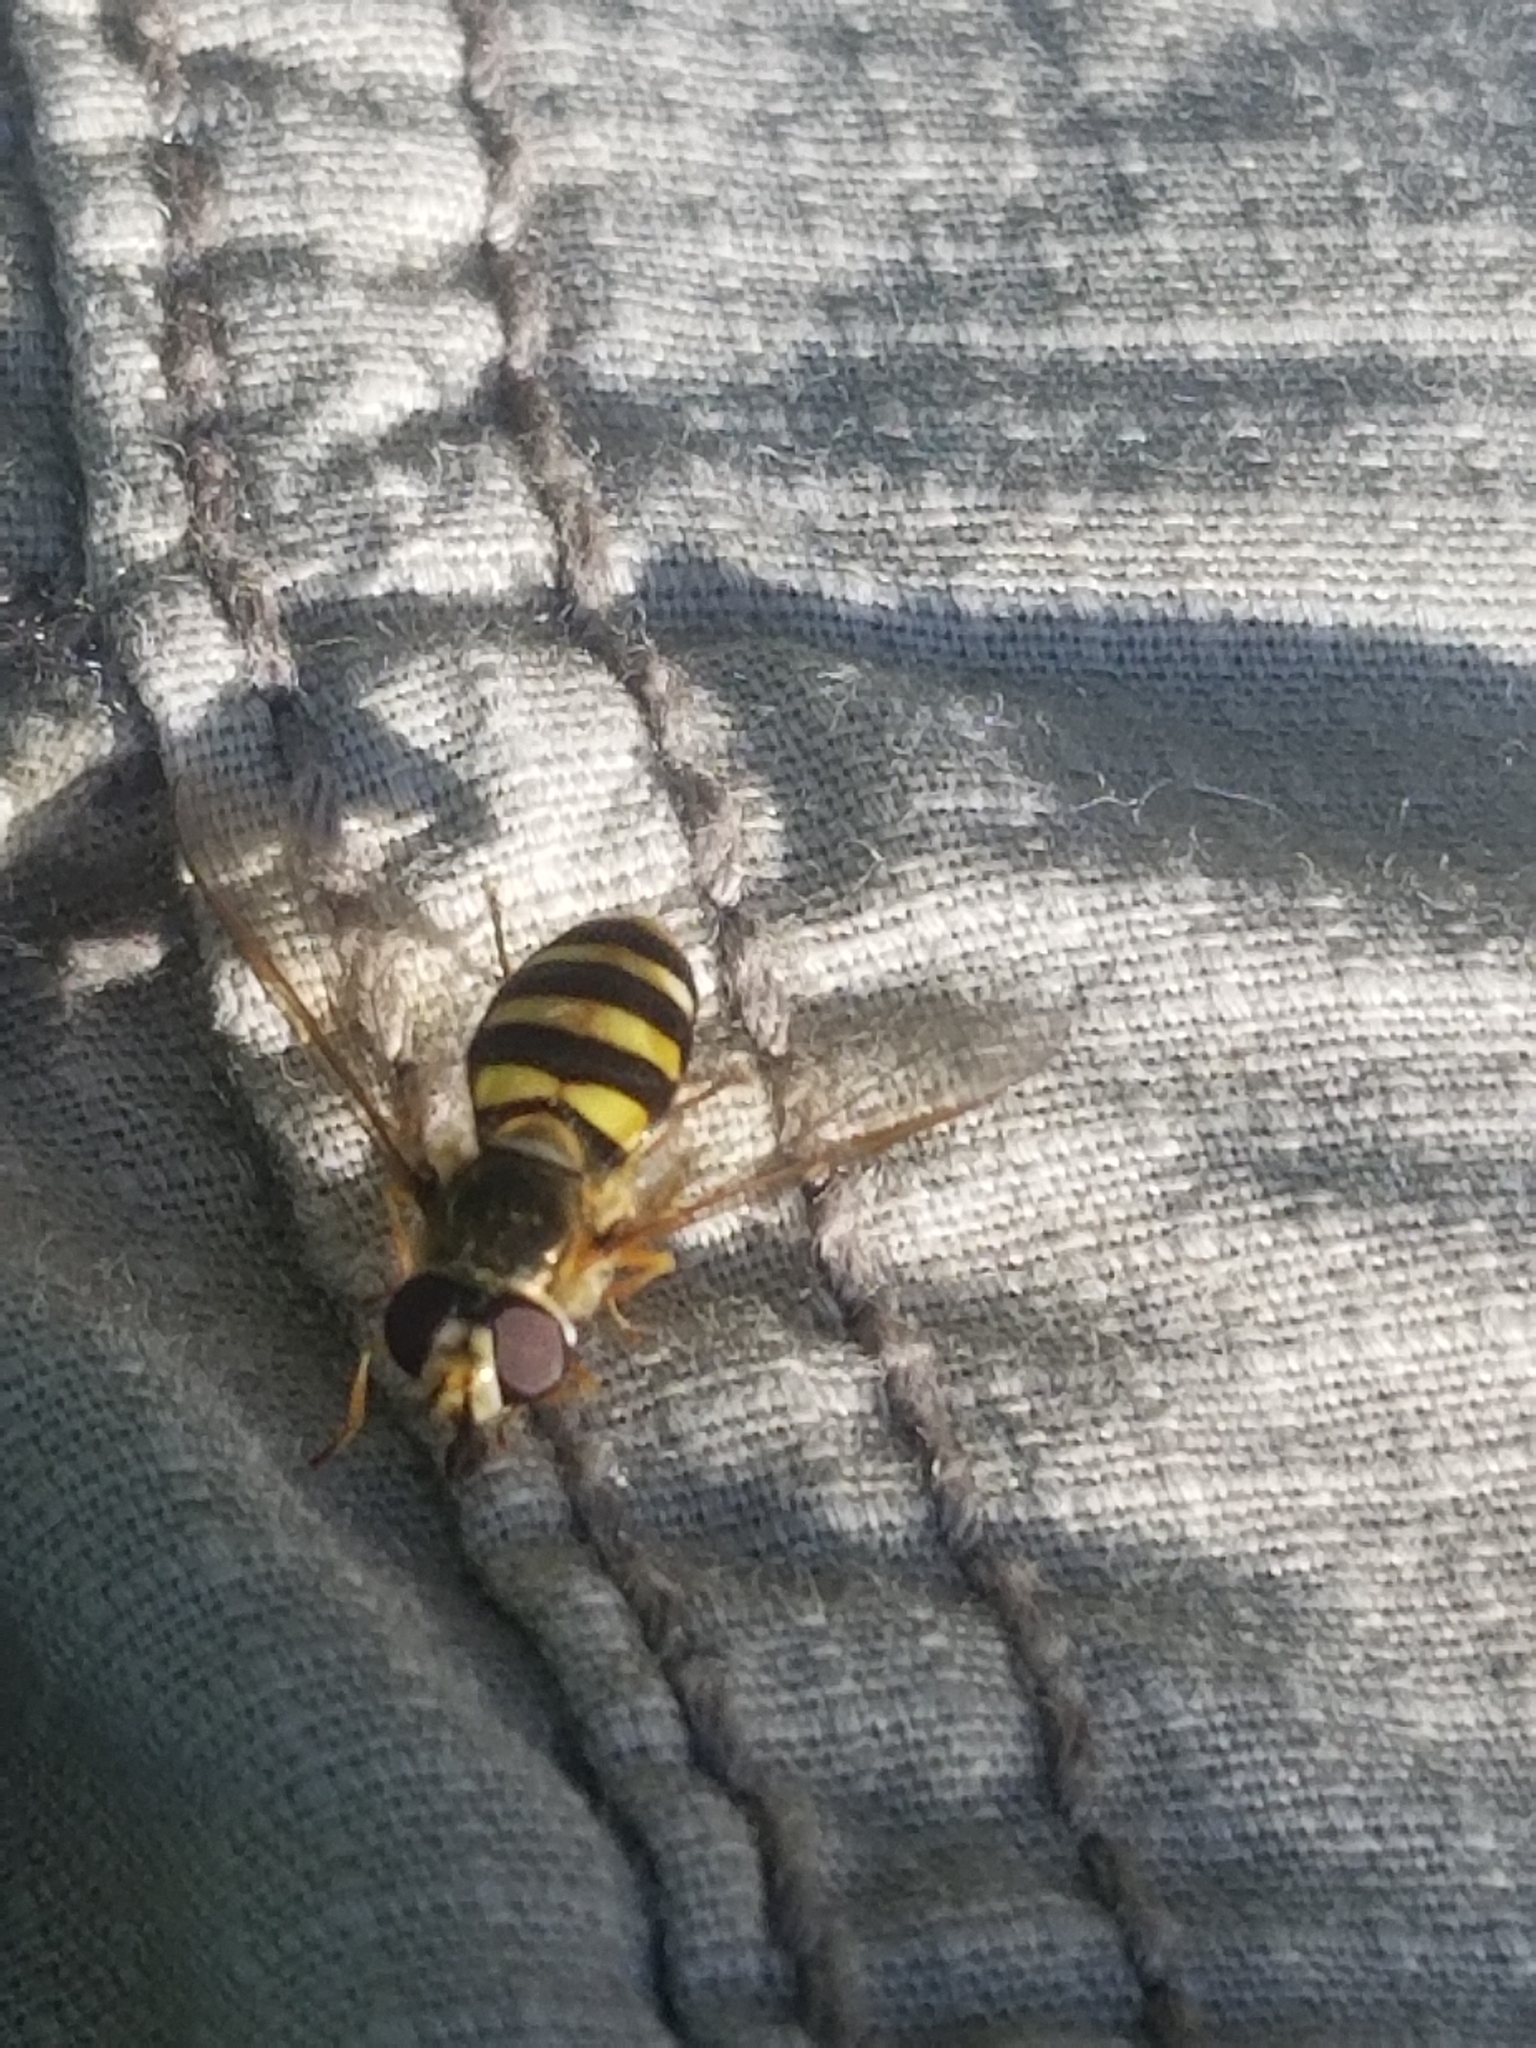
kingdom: Animalia
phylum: Arthropoda
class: Insecta
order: Diptera
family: Syrphidae
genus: Eupeodes
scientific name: Eupeodes
